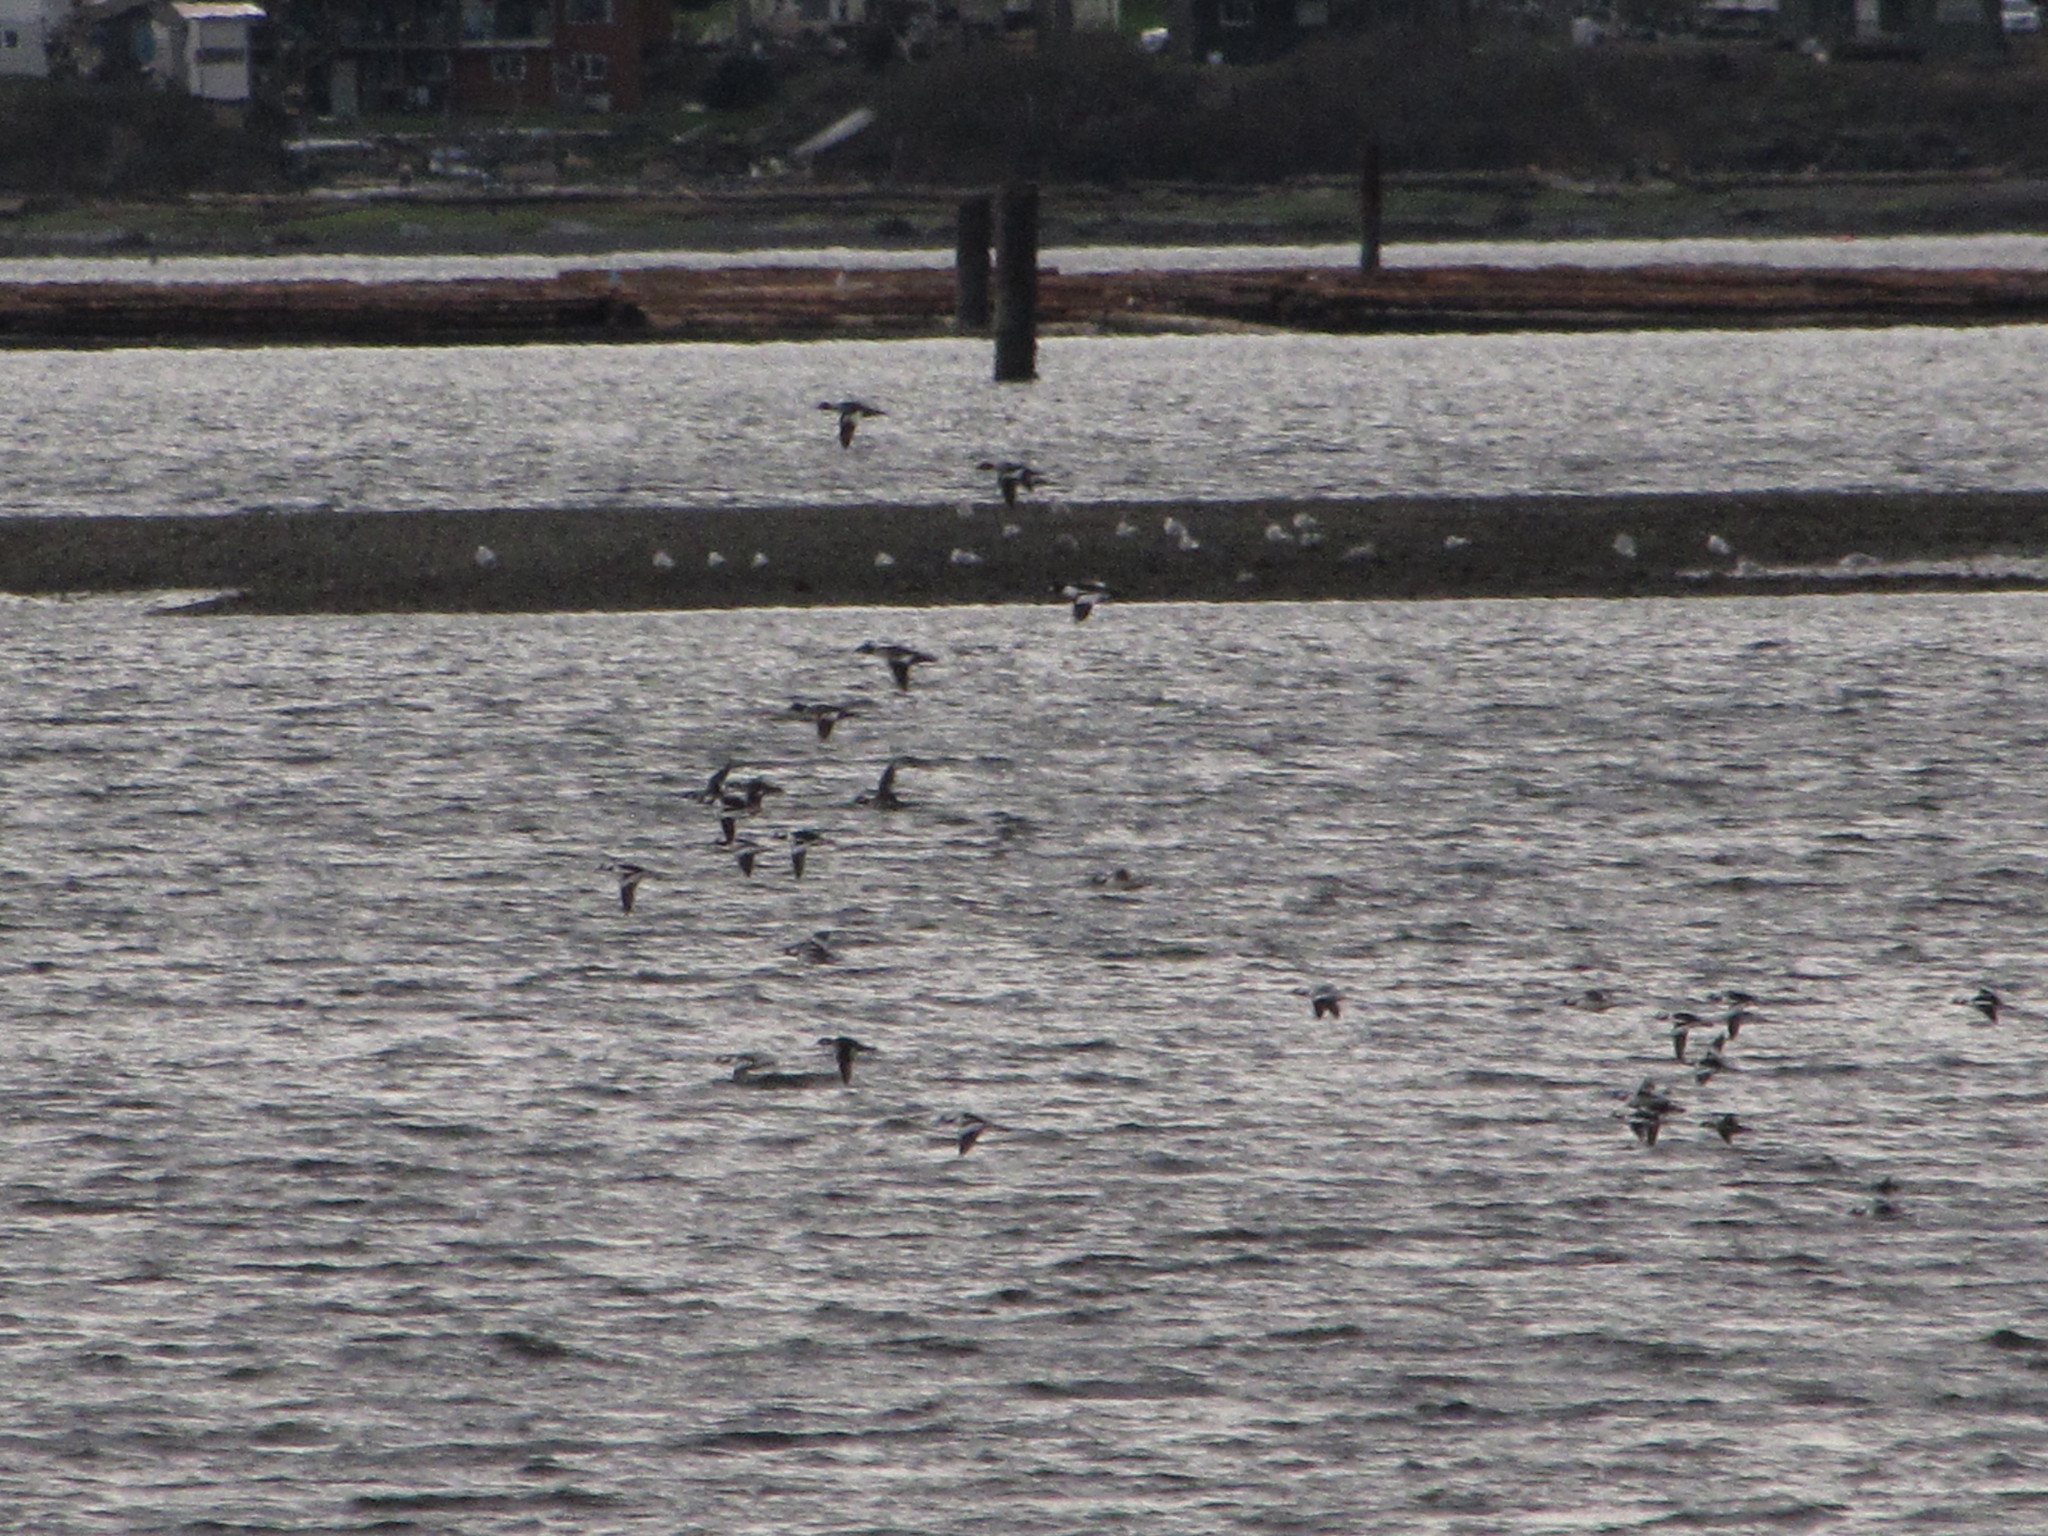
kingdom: Animalia
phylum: Chordata
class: Aves
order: Anseriformes
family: Anatidae
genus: Bucephala
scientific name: Bucephala albeola
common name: Bufflehead
